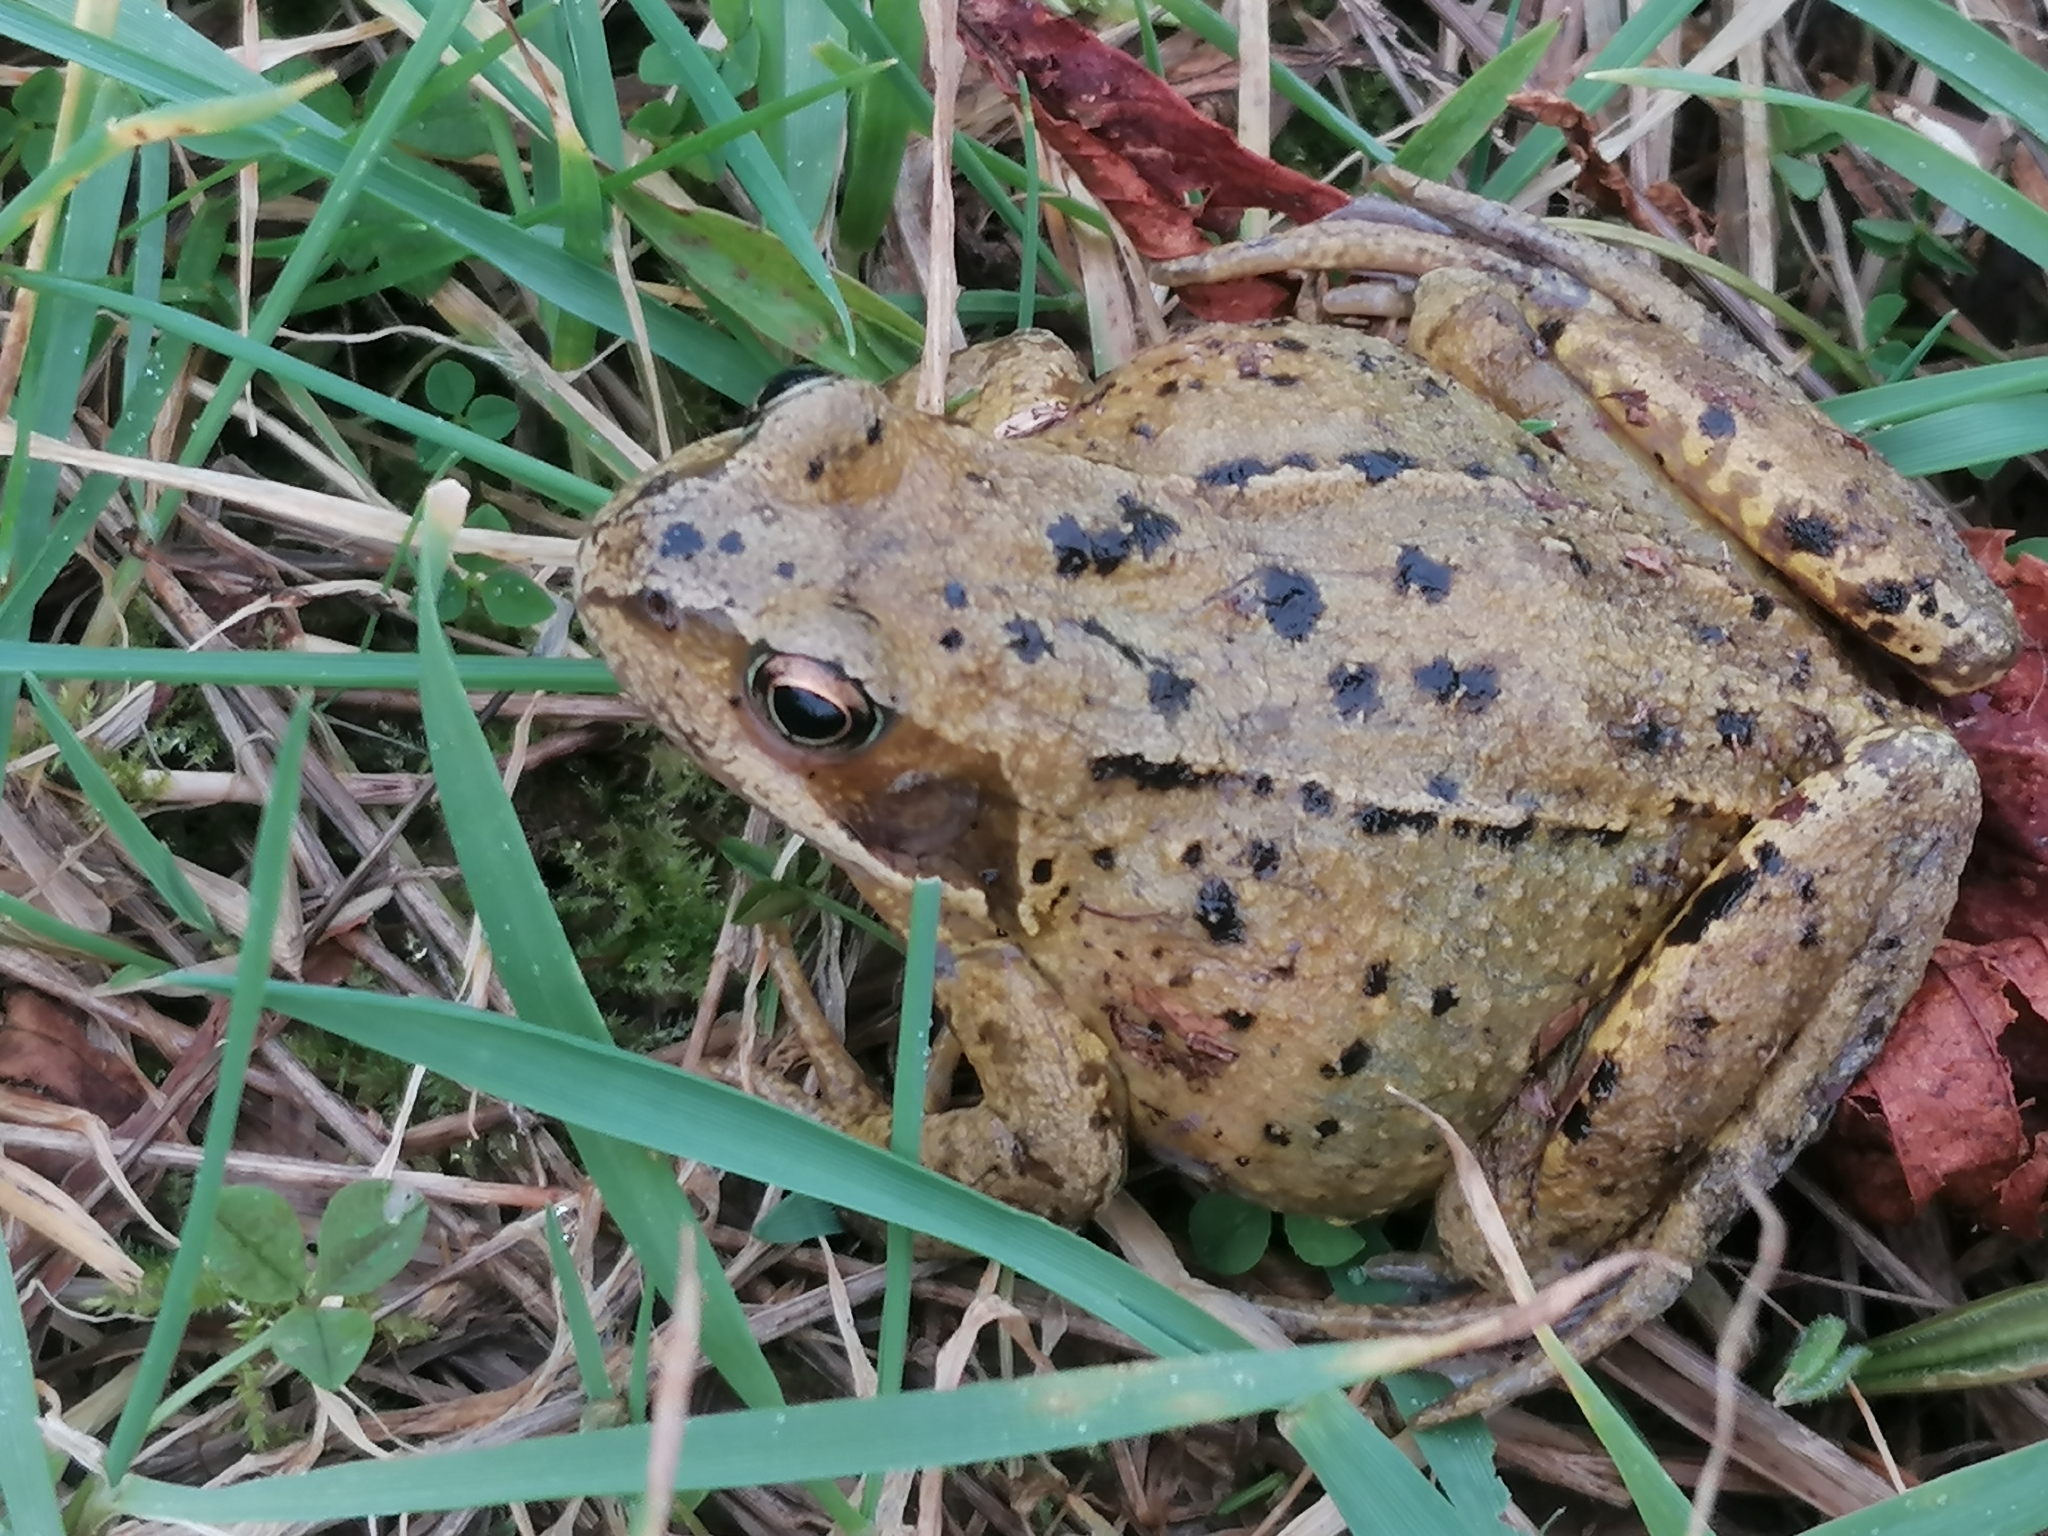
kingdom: Animalia
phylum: Chordata
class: Amphibia
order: Anura
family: Ranidae
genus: Rana
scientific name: Rana temporaria
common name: Common frog
